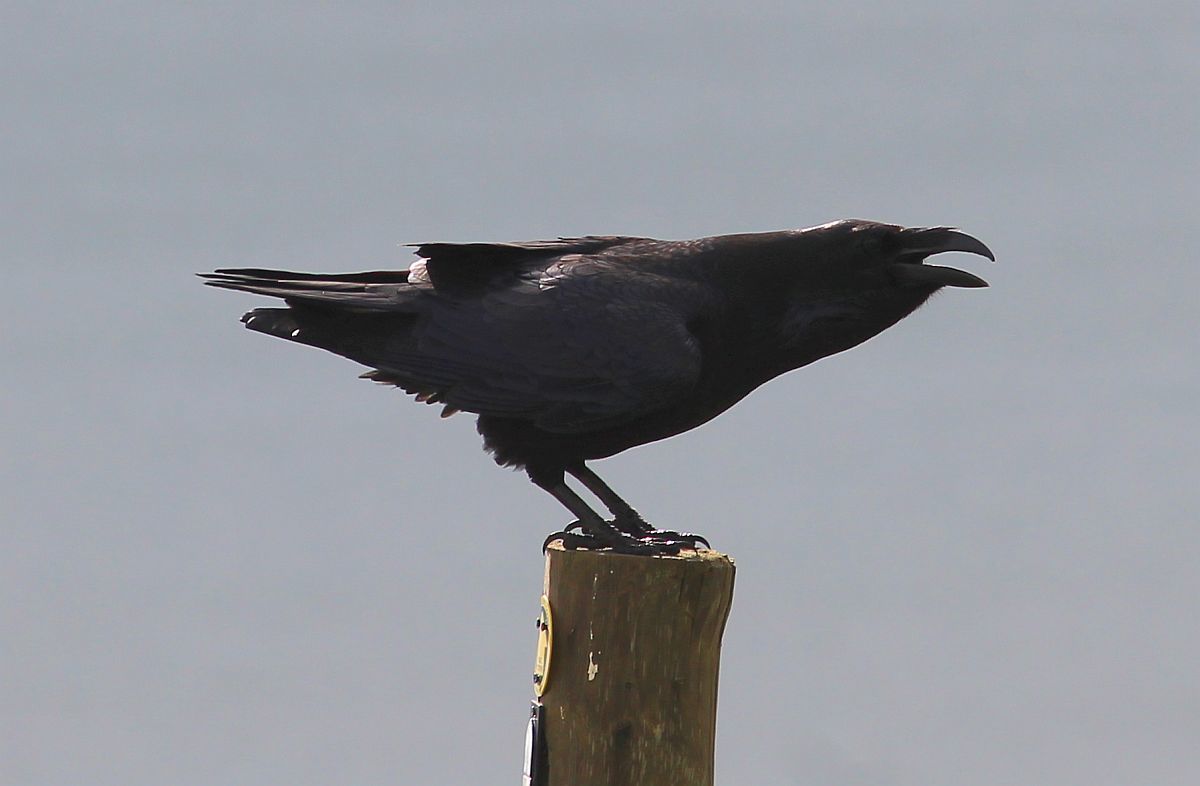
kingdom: Animalia
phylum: Chordata
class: Aves
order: Passeriformes
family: Corvidae
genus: Corvus
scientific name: Corvus corax
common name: Common raven
